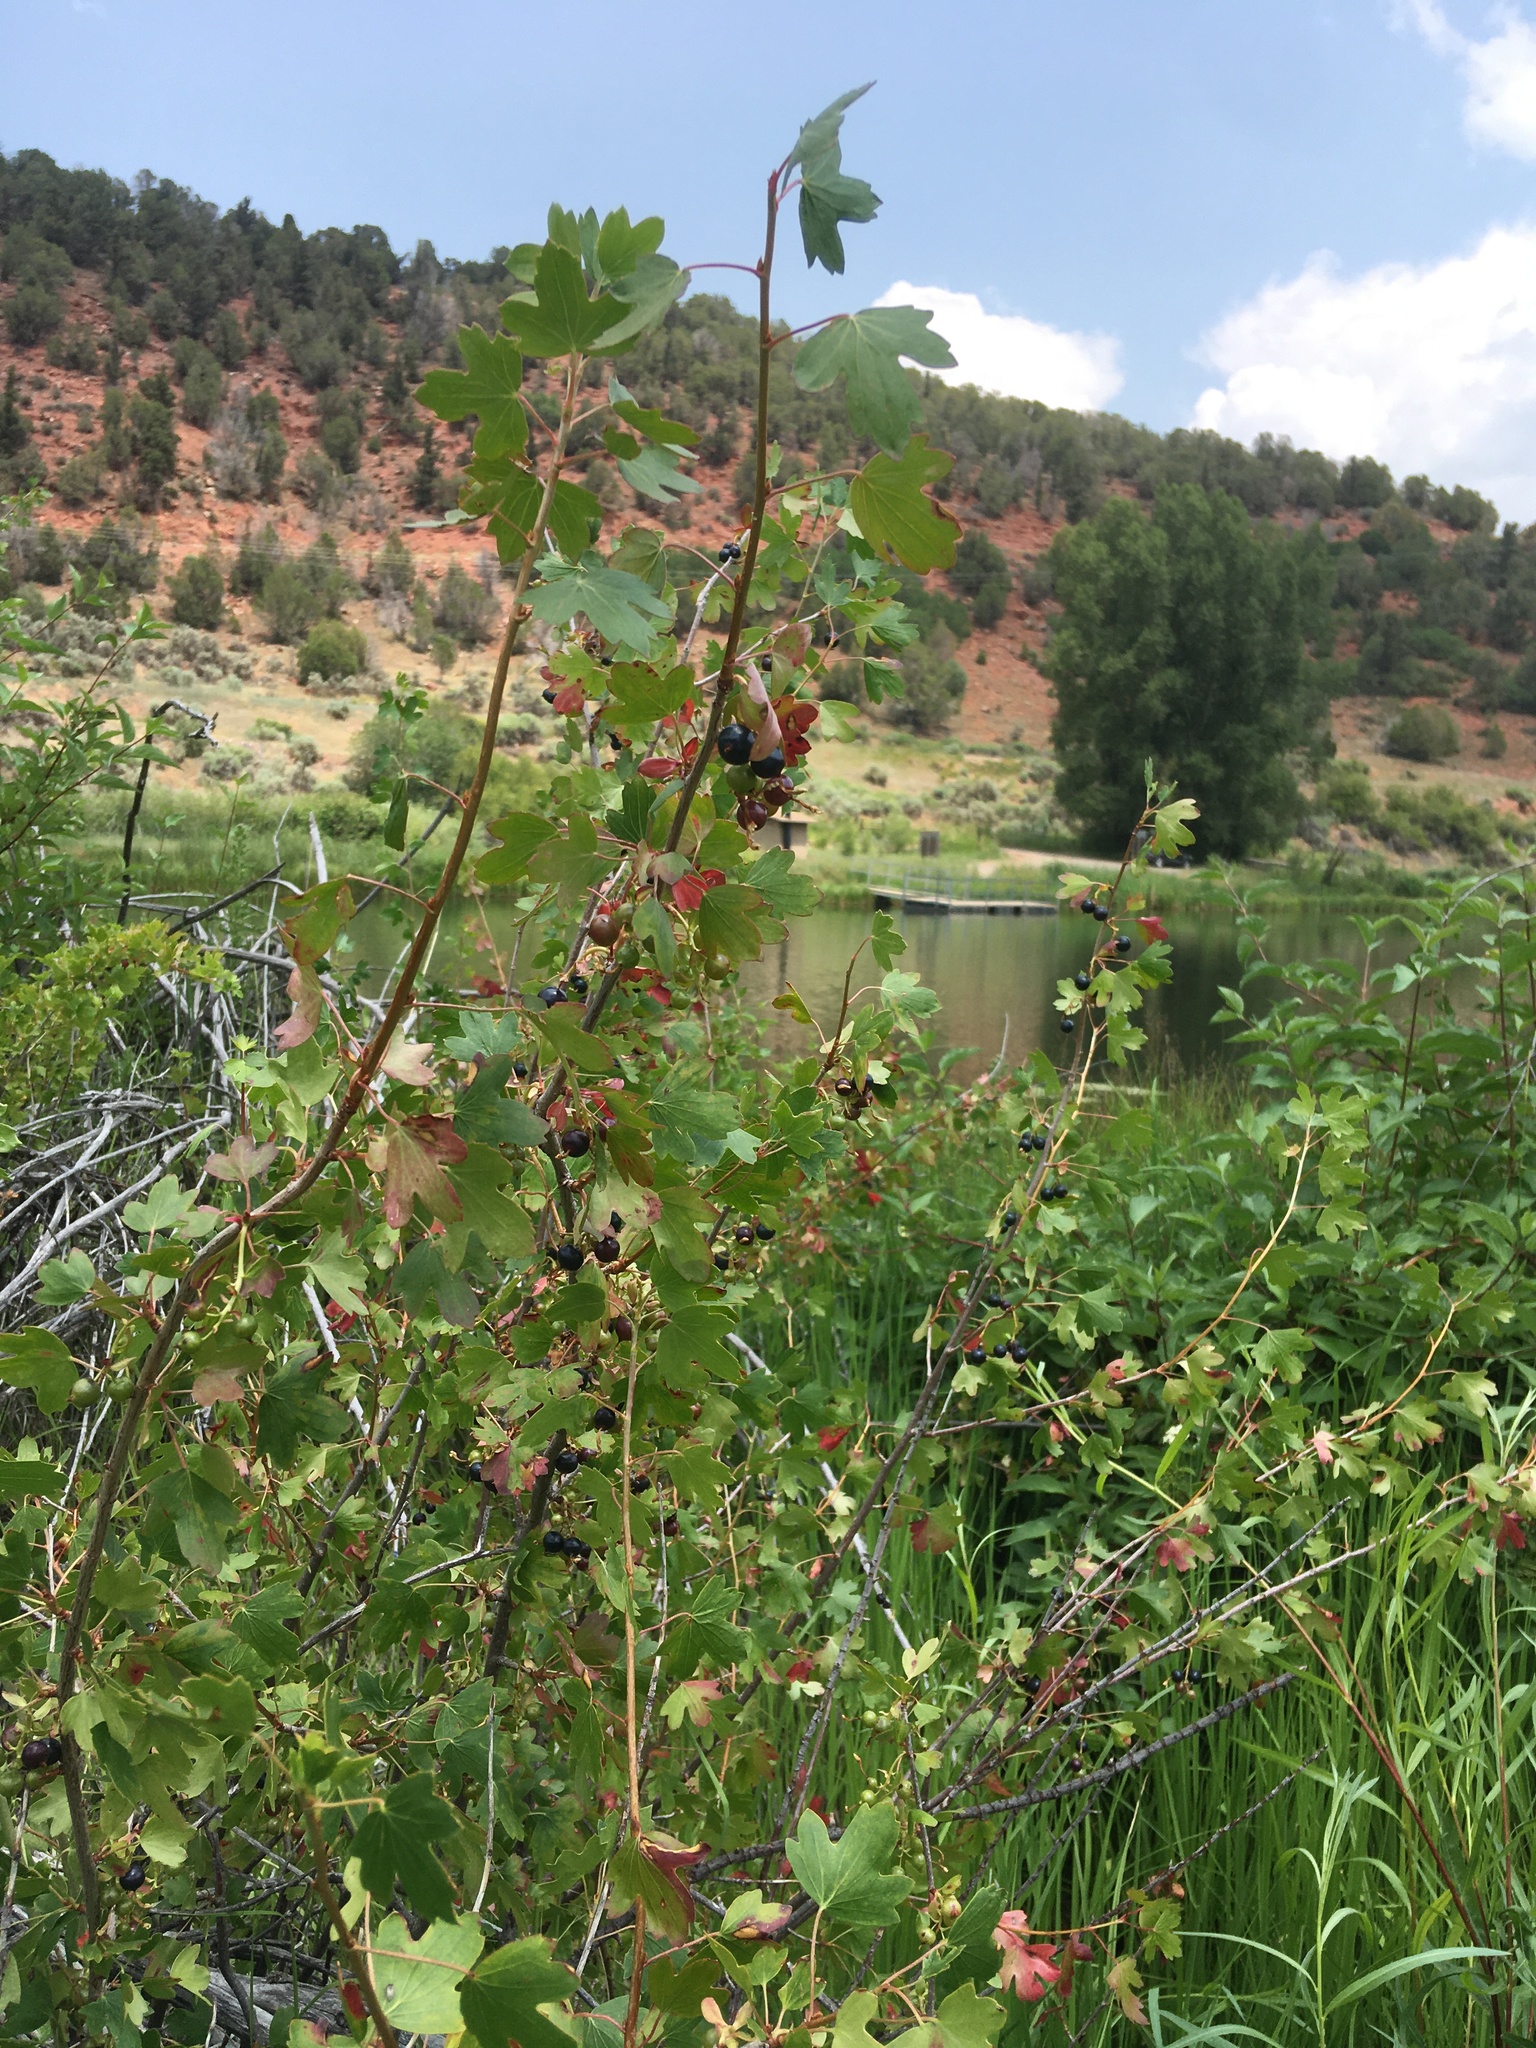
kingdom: Plantae
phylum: Tracheophyta
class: Magnoliopsida
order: Saxifragales
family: Grossulariaceae
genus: Ribes
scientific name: Ribes aureum
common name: Golden currant
